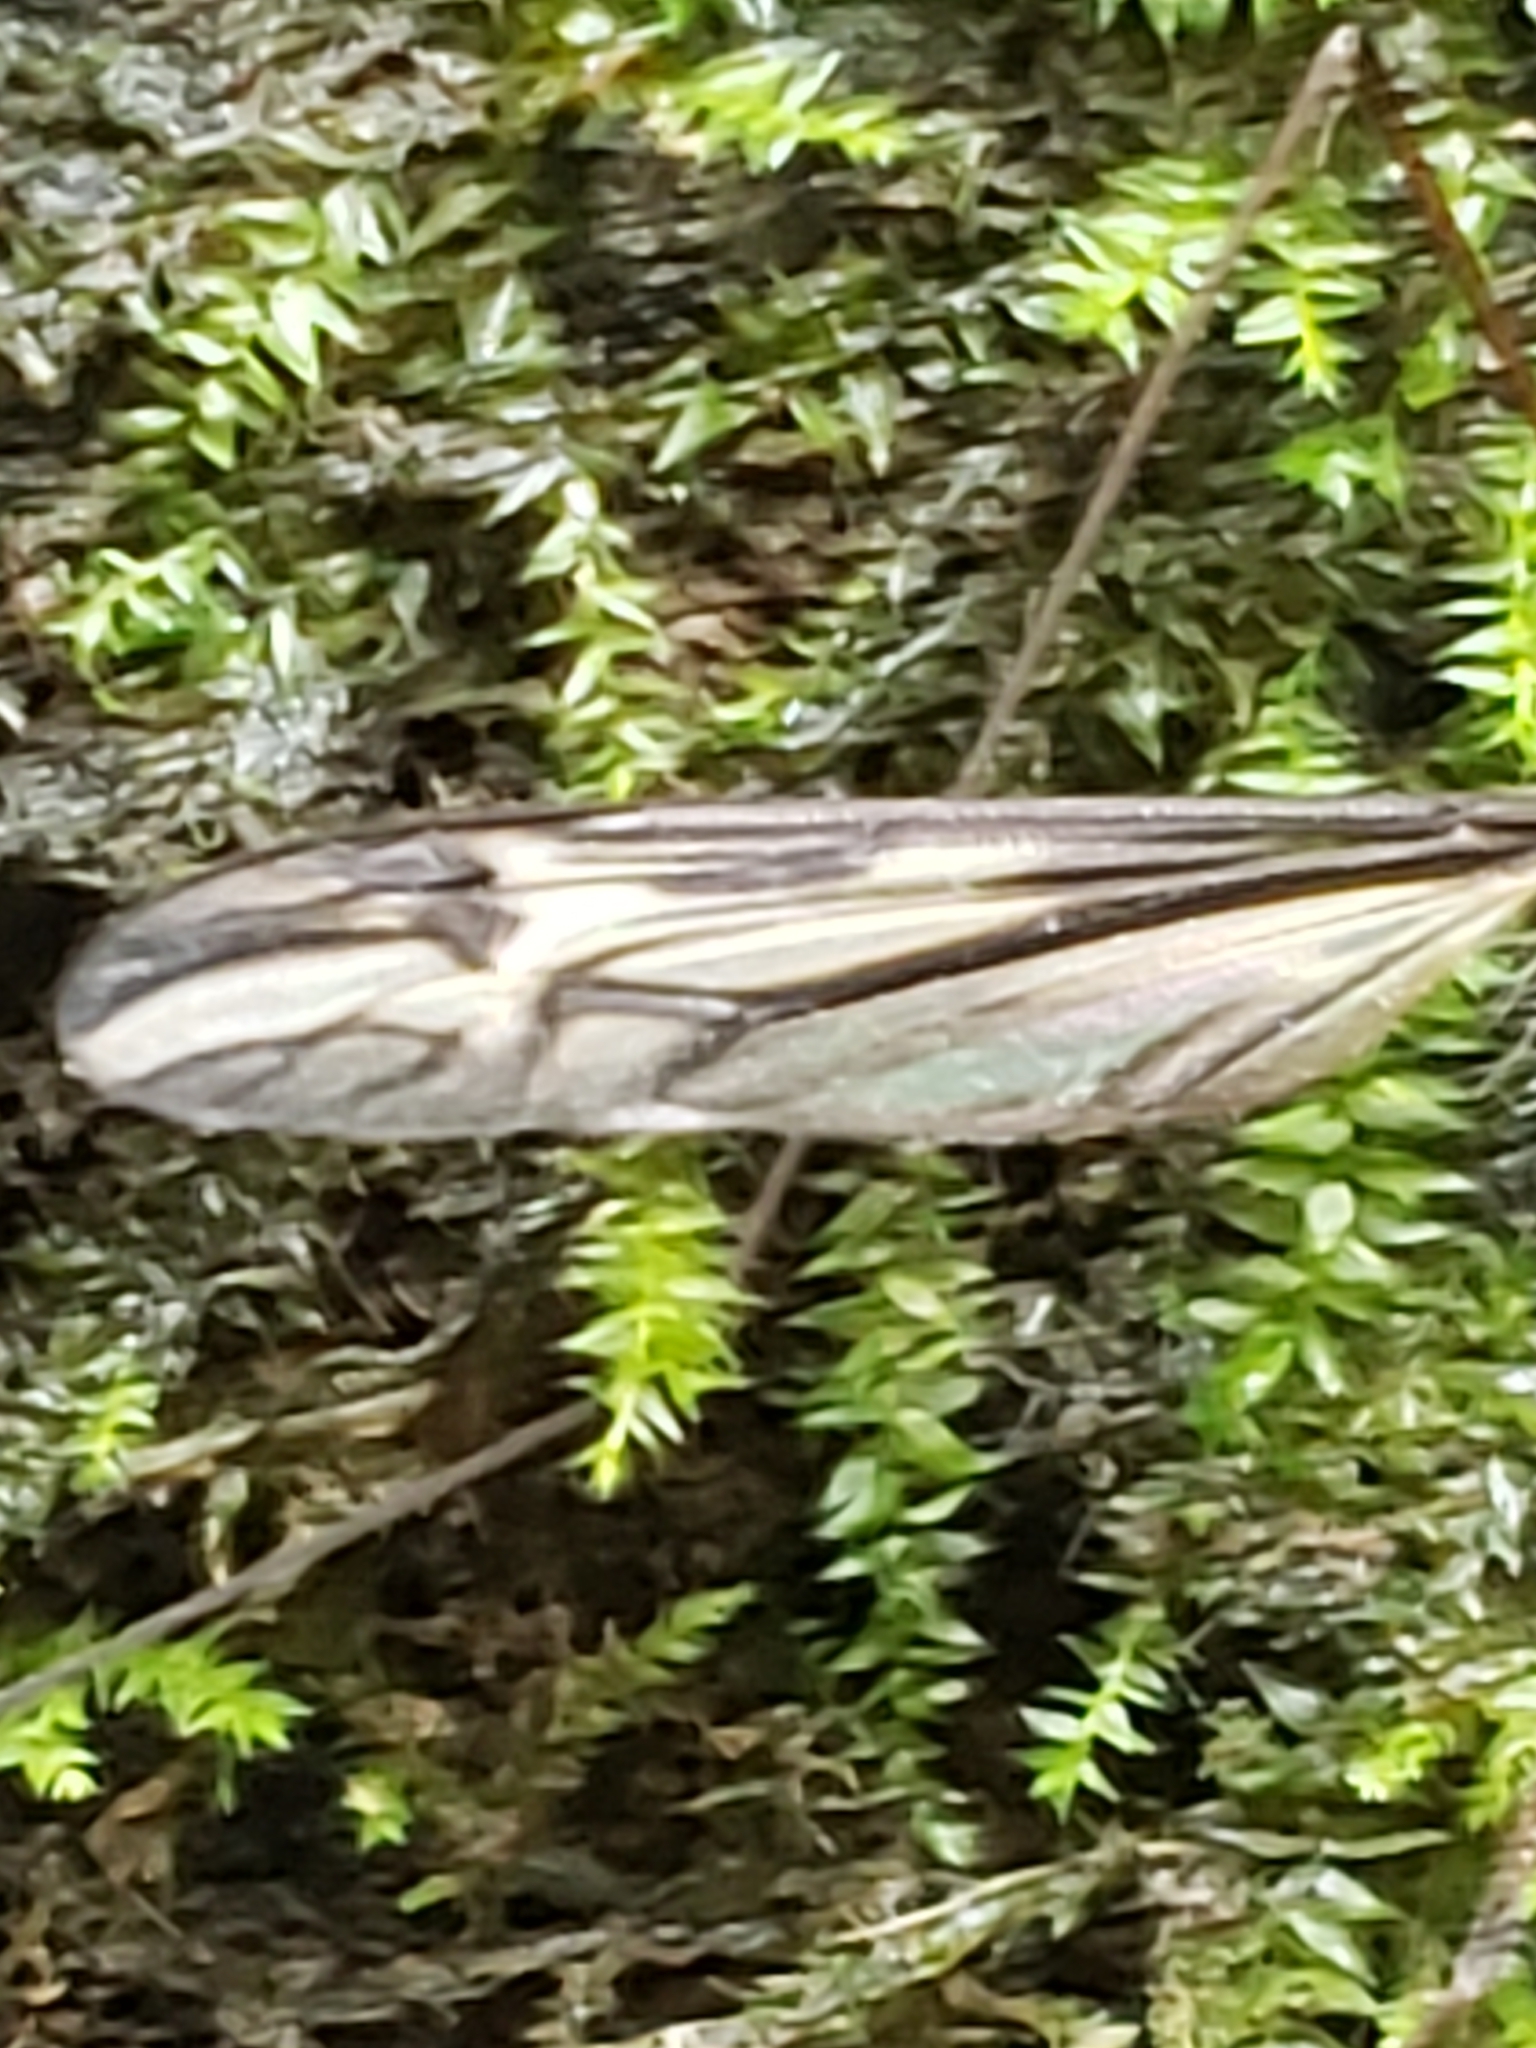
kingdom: Fungi
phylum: Entomophthoromycota
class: Entomophthoromycetes
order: Entomophthorales
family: Entomophthoraceae
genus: Erynia
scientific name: Erynia sepulchralis
